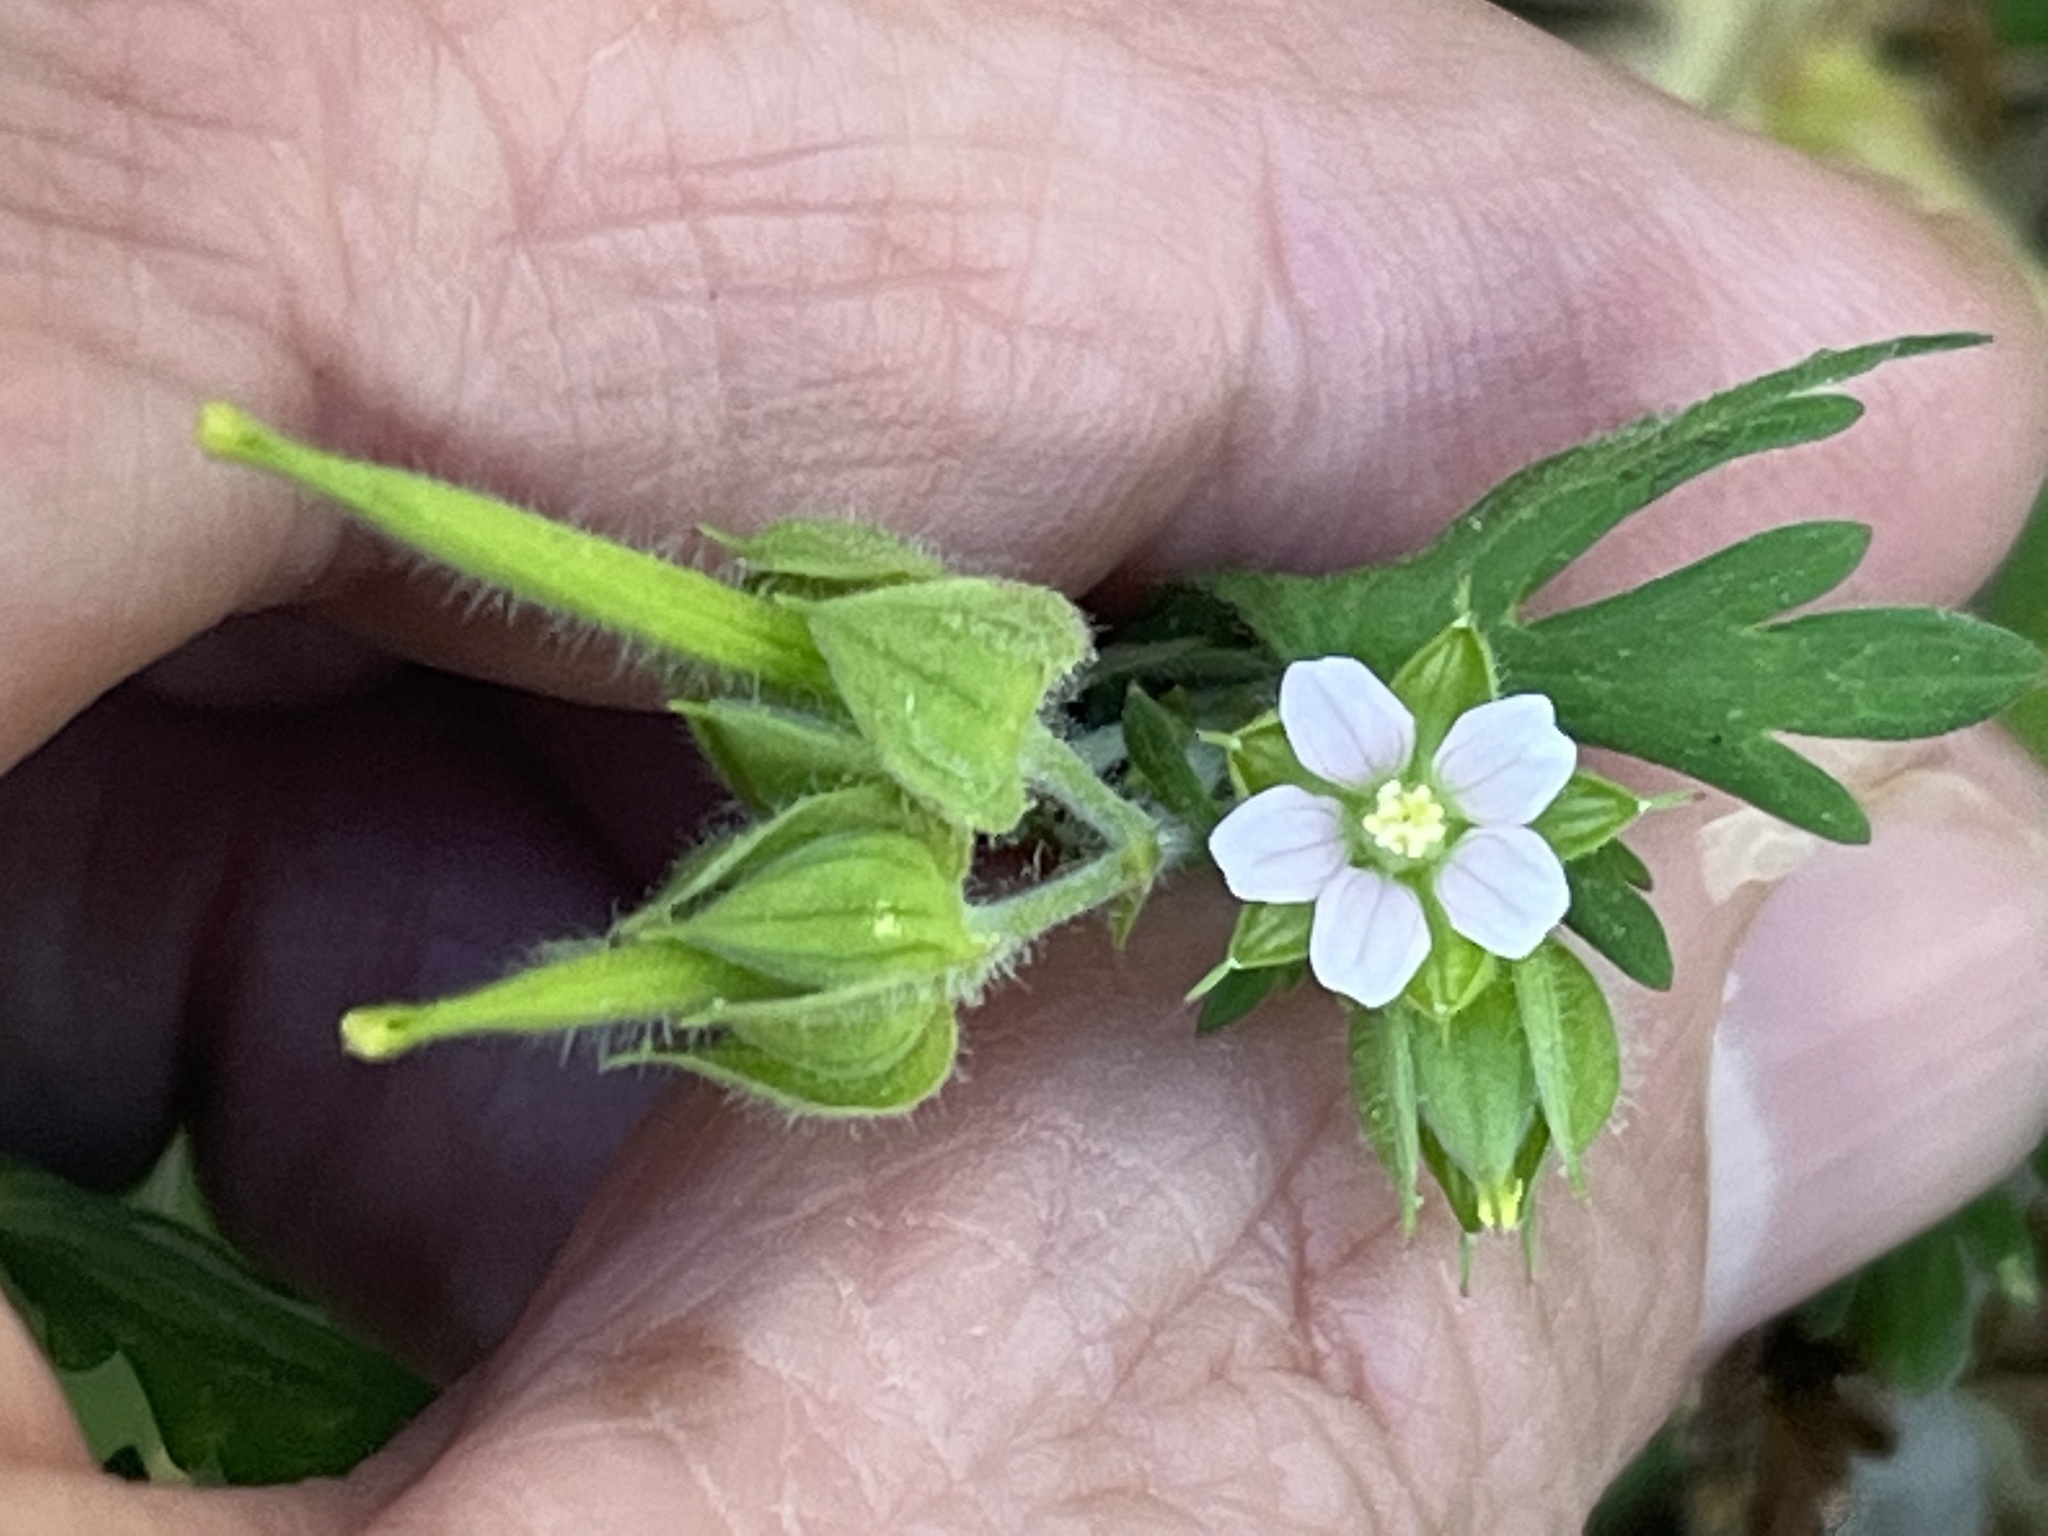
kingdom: Plantae
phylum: Tracheophyta
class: Magnoliopsida
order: Geraniales
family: Geraniaceae
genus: Geranium
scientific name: Geranium carolinianum
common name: Carolina crane's-bill
